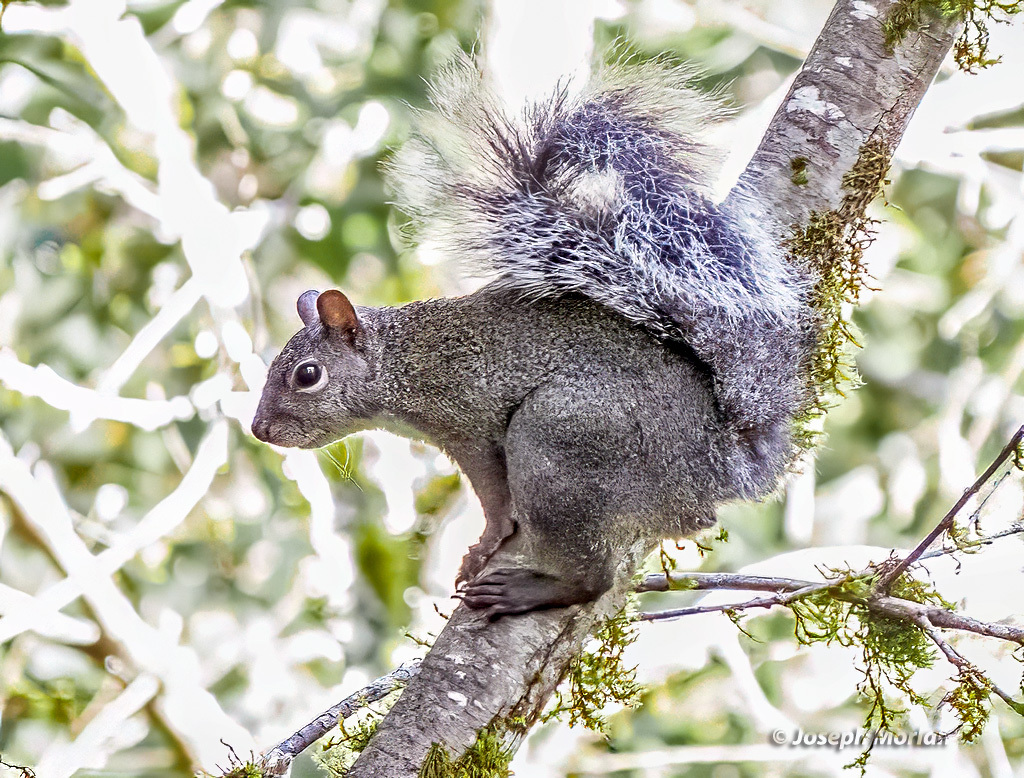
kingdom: Animalia
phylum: Chordata
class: Mammalia
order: Rodentia
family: Sciuridae
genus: Sciurus
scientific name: Sciurus griseus
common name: Western gray squirrel
